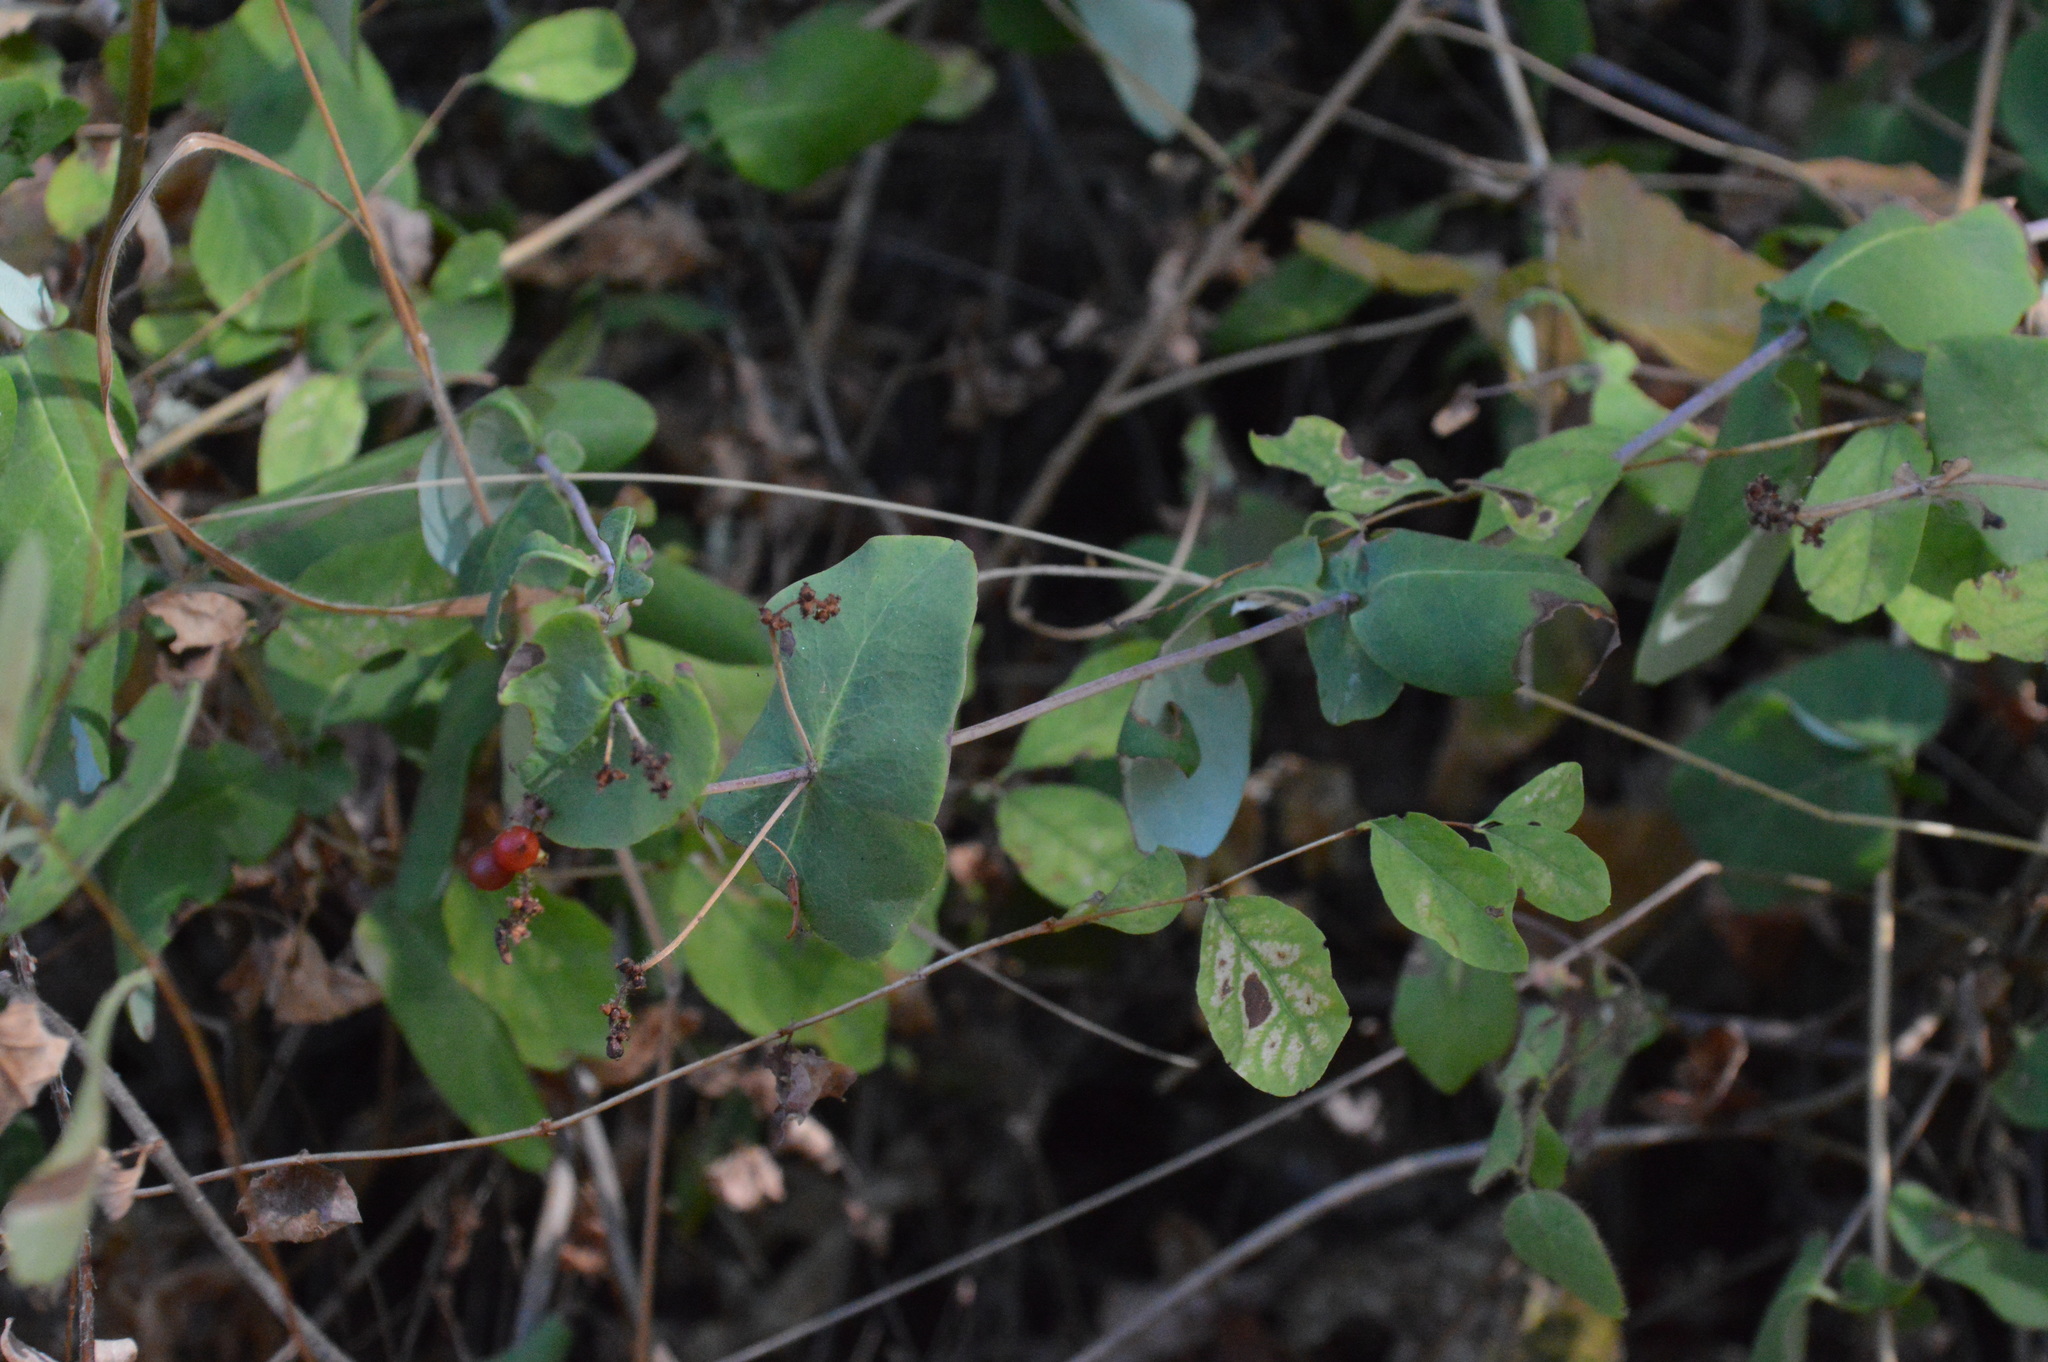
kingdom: Plantae
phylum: Tracheophyta
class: Magnoliopsida
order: Dipsacales
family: Caprifoliaceae
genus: Lonicera
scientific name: Lonicera hispidula
